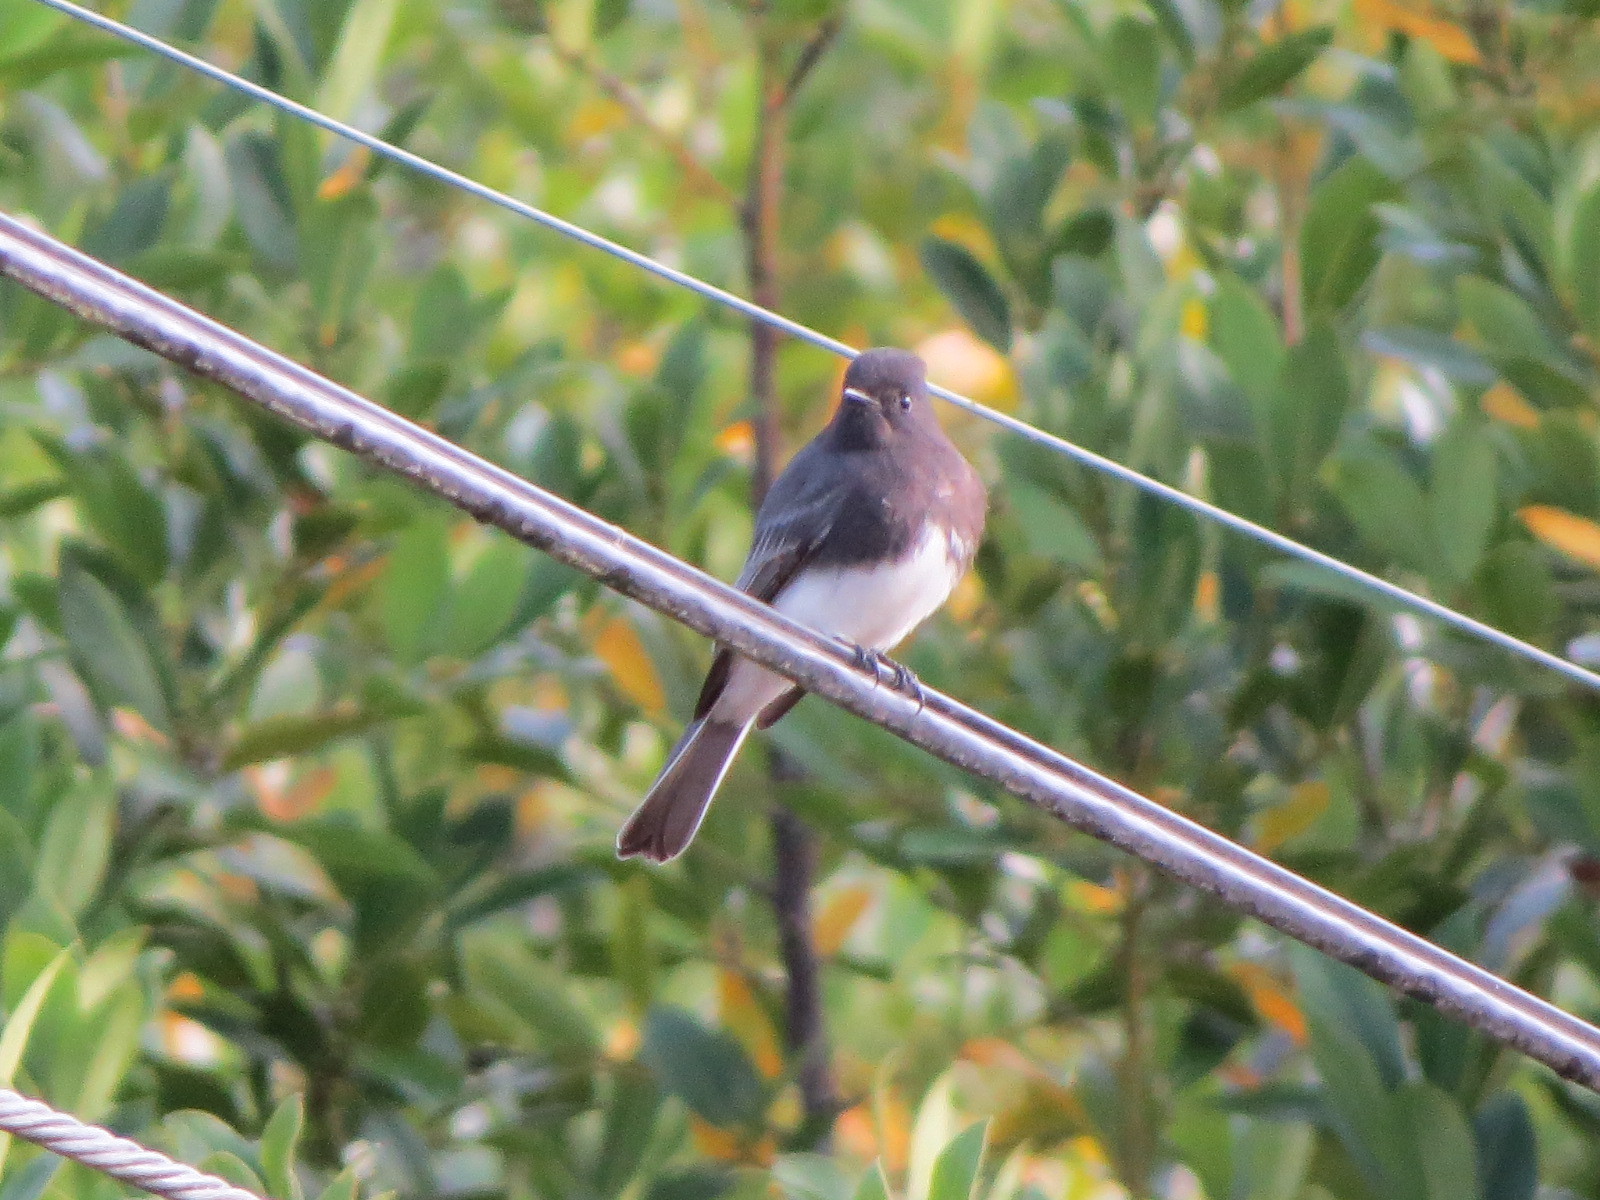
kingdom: Animalia
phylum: Chordata
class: Aves
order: Passeriformes
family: Tyrannidae
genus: Sayornis
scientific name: Sayornis nigricans
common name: Black phoebe
